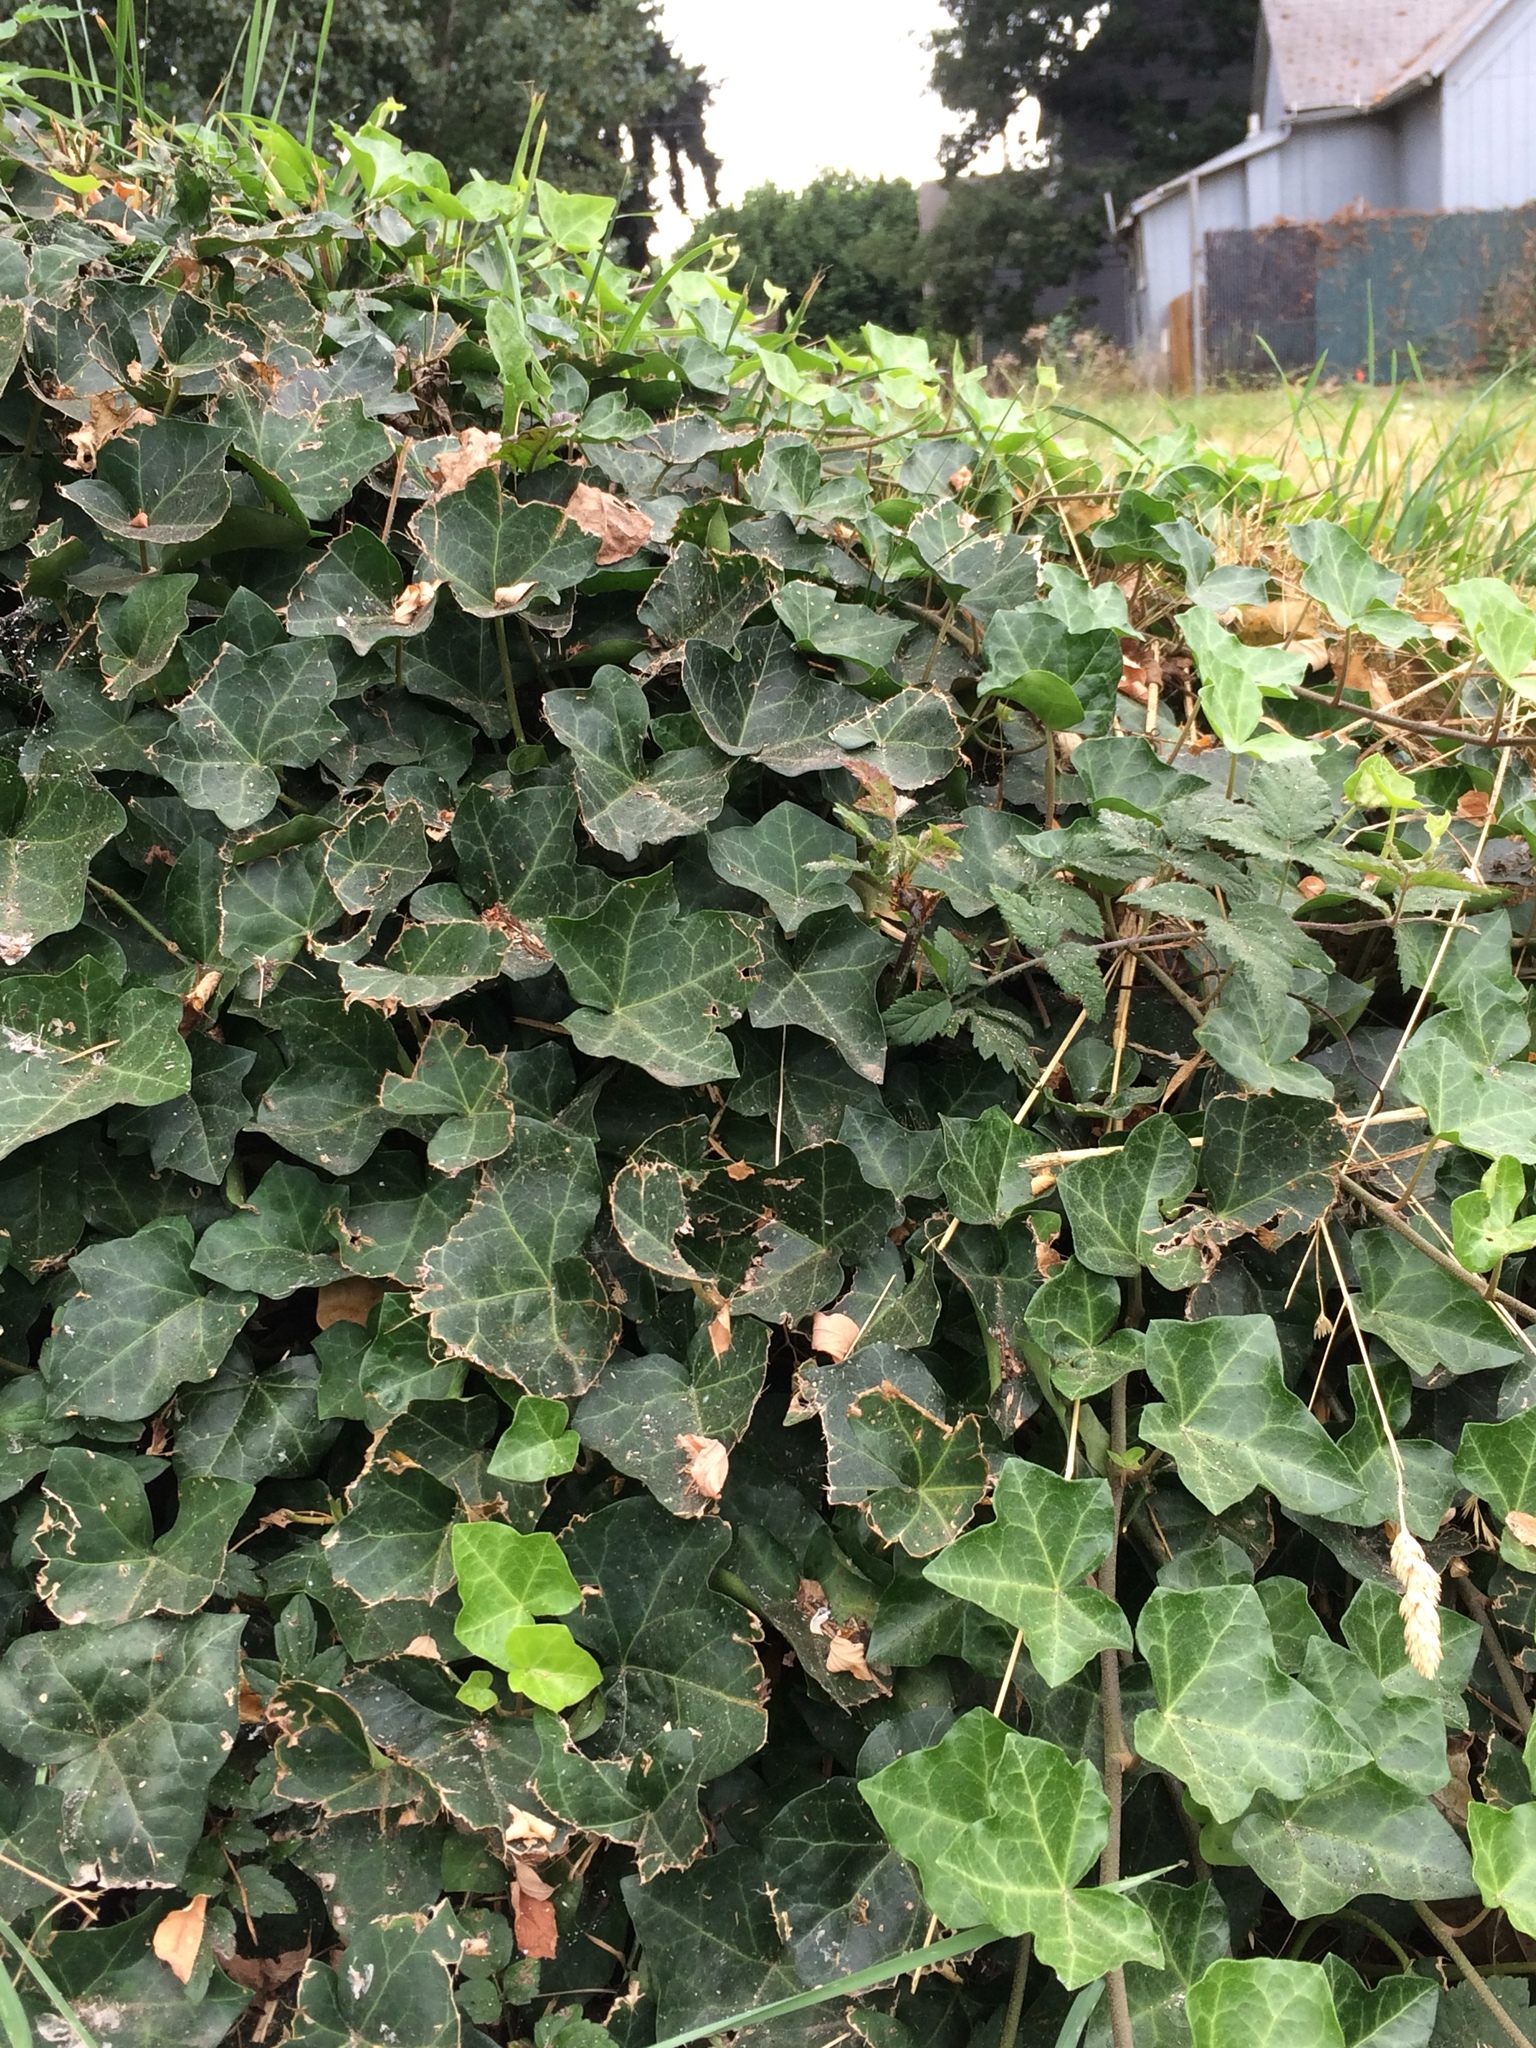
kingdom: Plantae
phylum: Tracheophyta
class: Magnoliopsida
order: Apiales
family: Araliaceae
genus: Hedera
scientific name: Hedera helix
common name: Ivy
